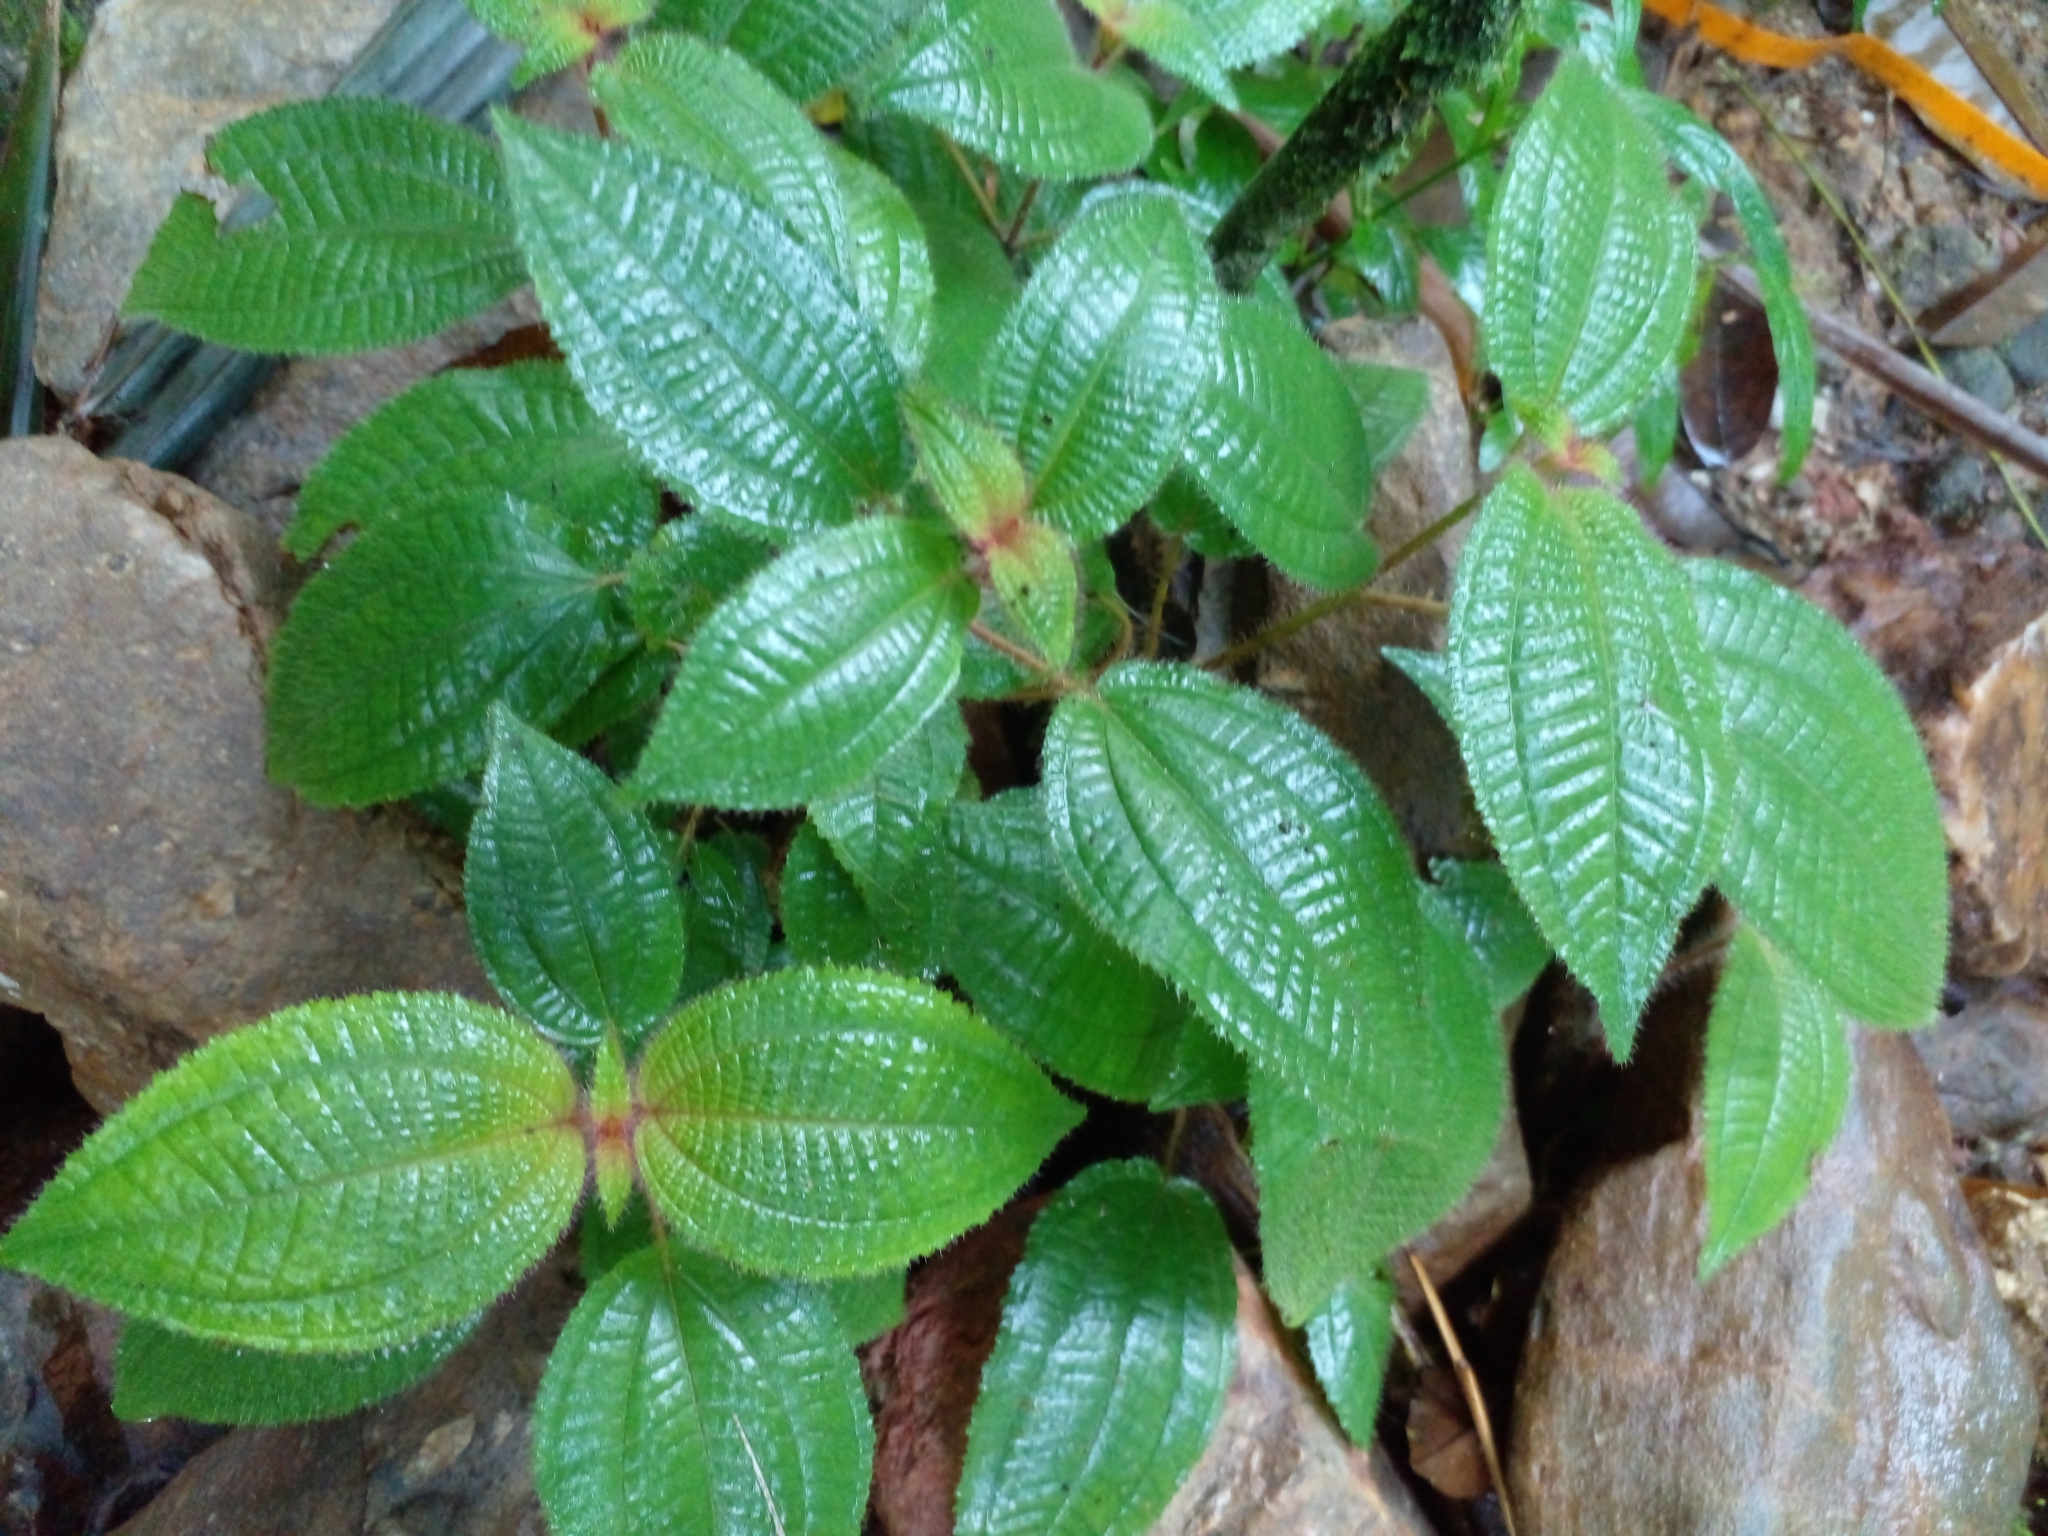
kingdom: Plantae
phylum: Tracheophyta
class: Magnoliopsida
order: Myrtales
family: Melastomataceae
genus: Miconia
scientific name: Miconia crenata
